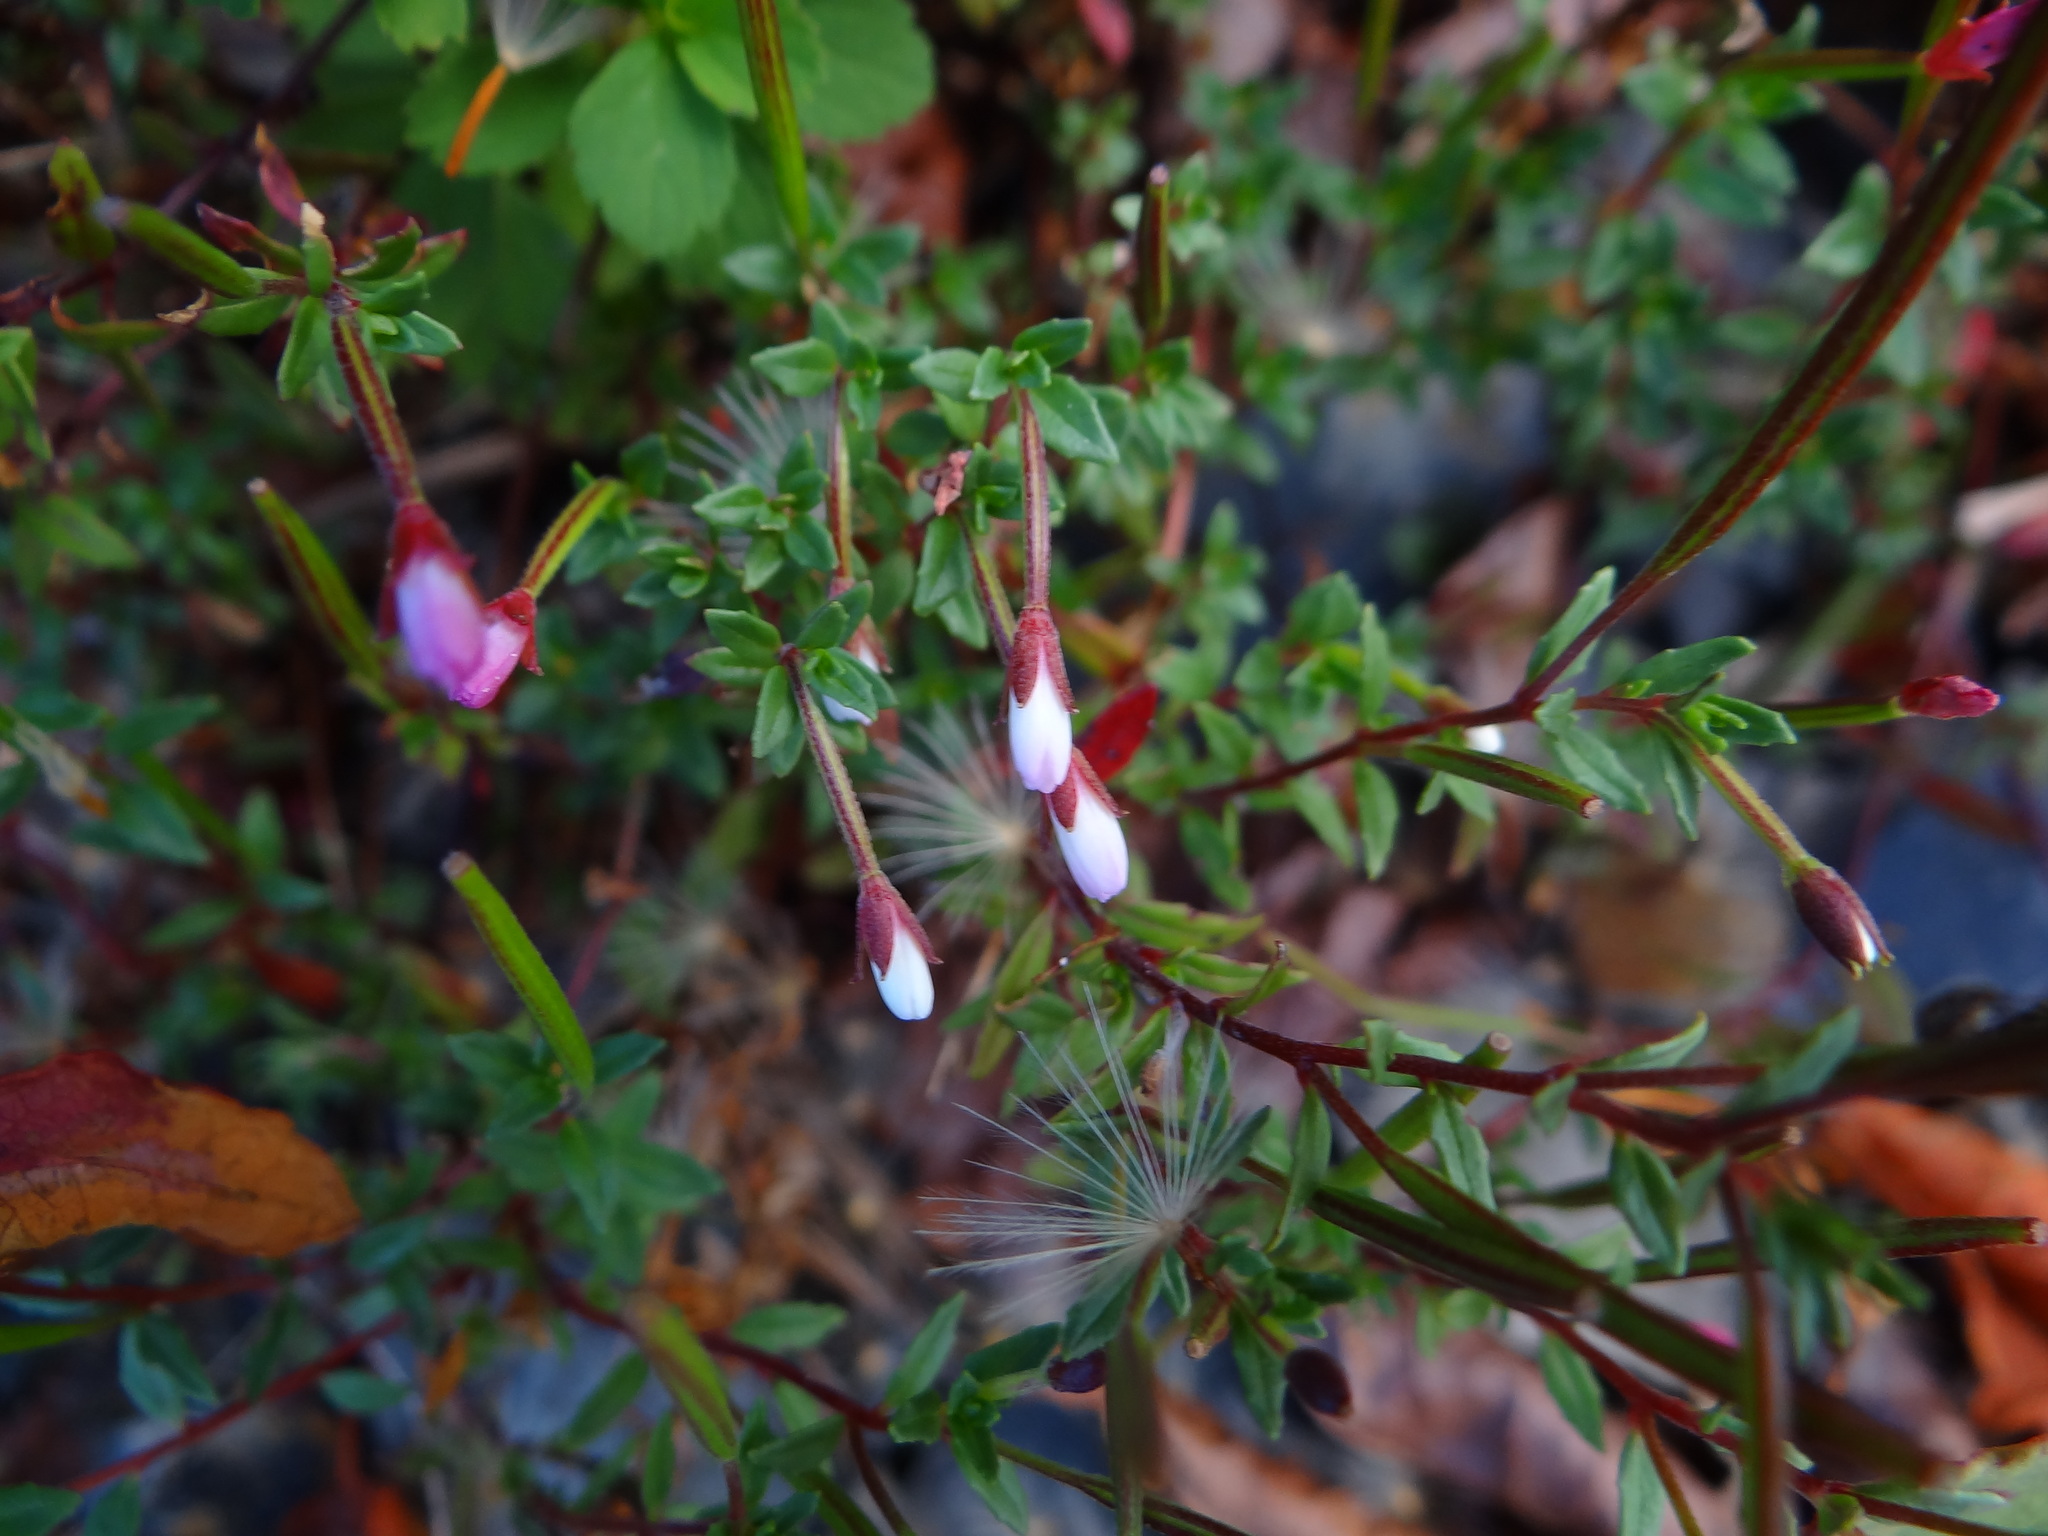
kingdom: Plantae
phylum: Tracheophyta
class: Magnoliopsida
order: Myrtales
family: Onagraceae
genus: Epilobium
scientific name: Epilobium hohuanense
